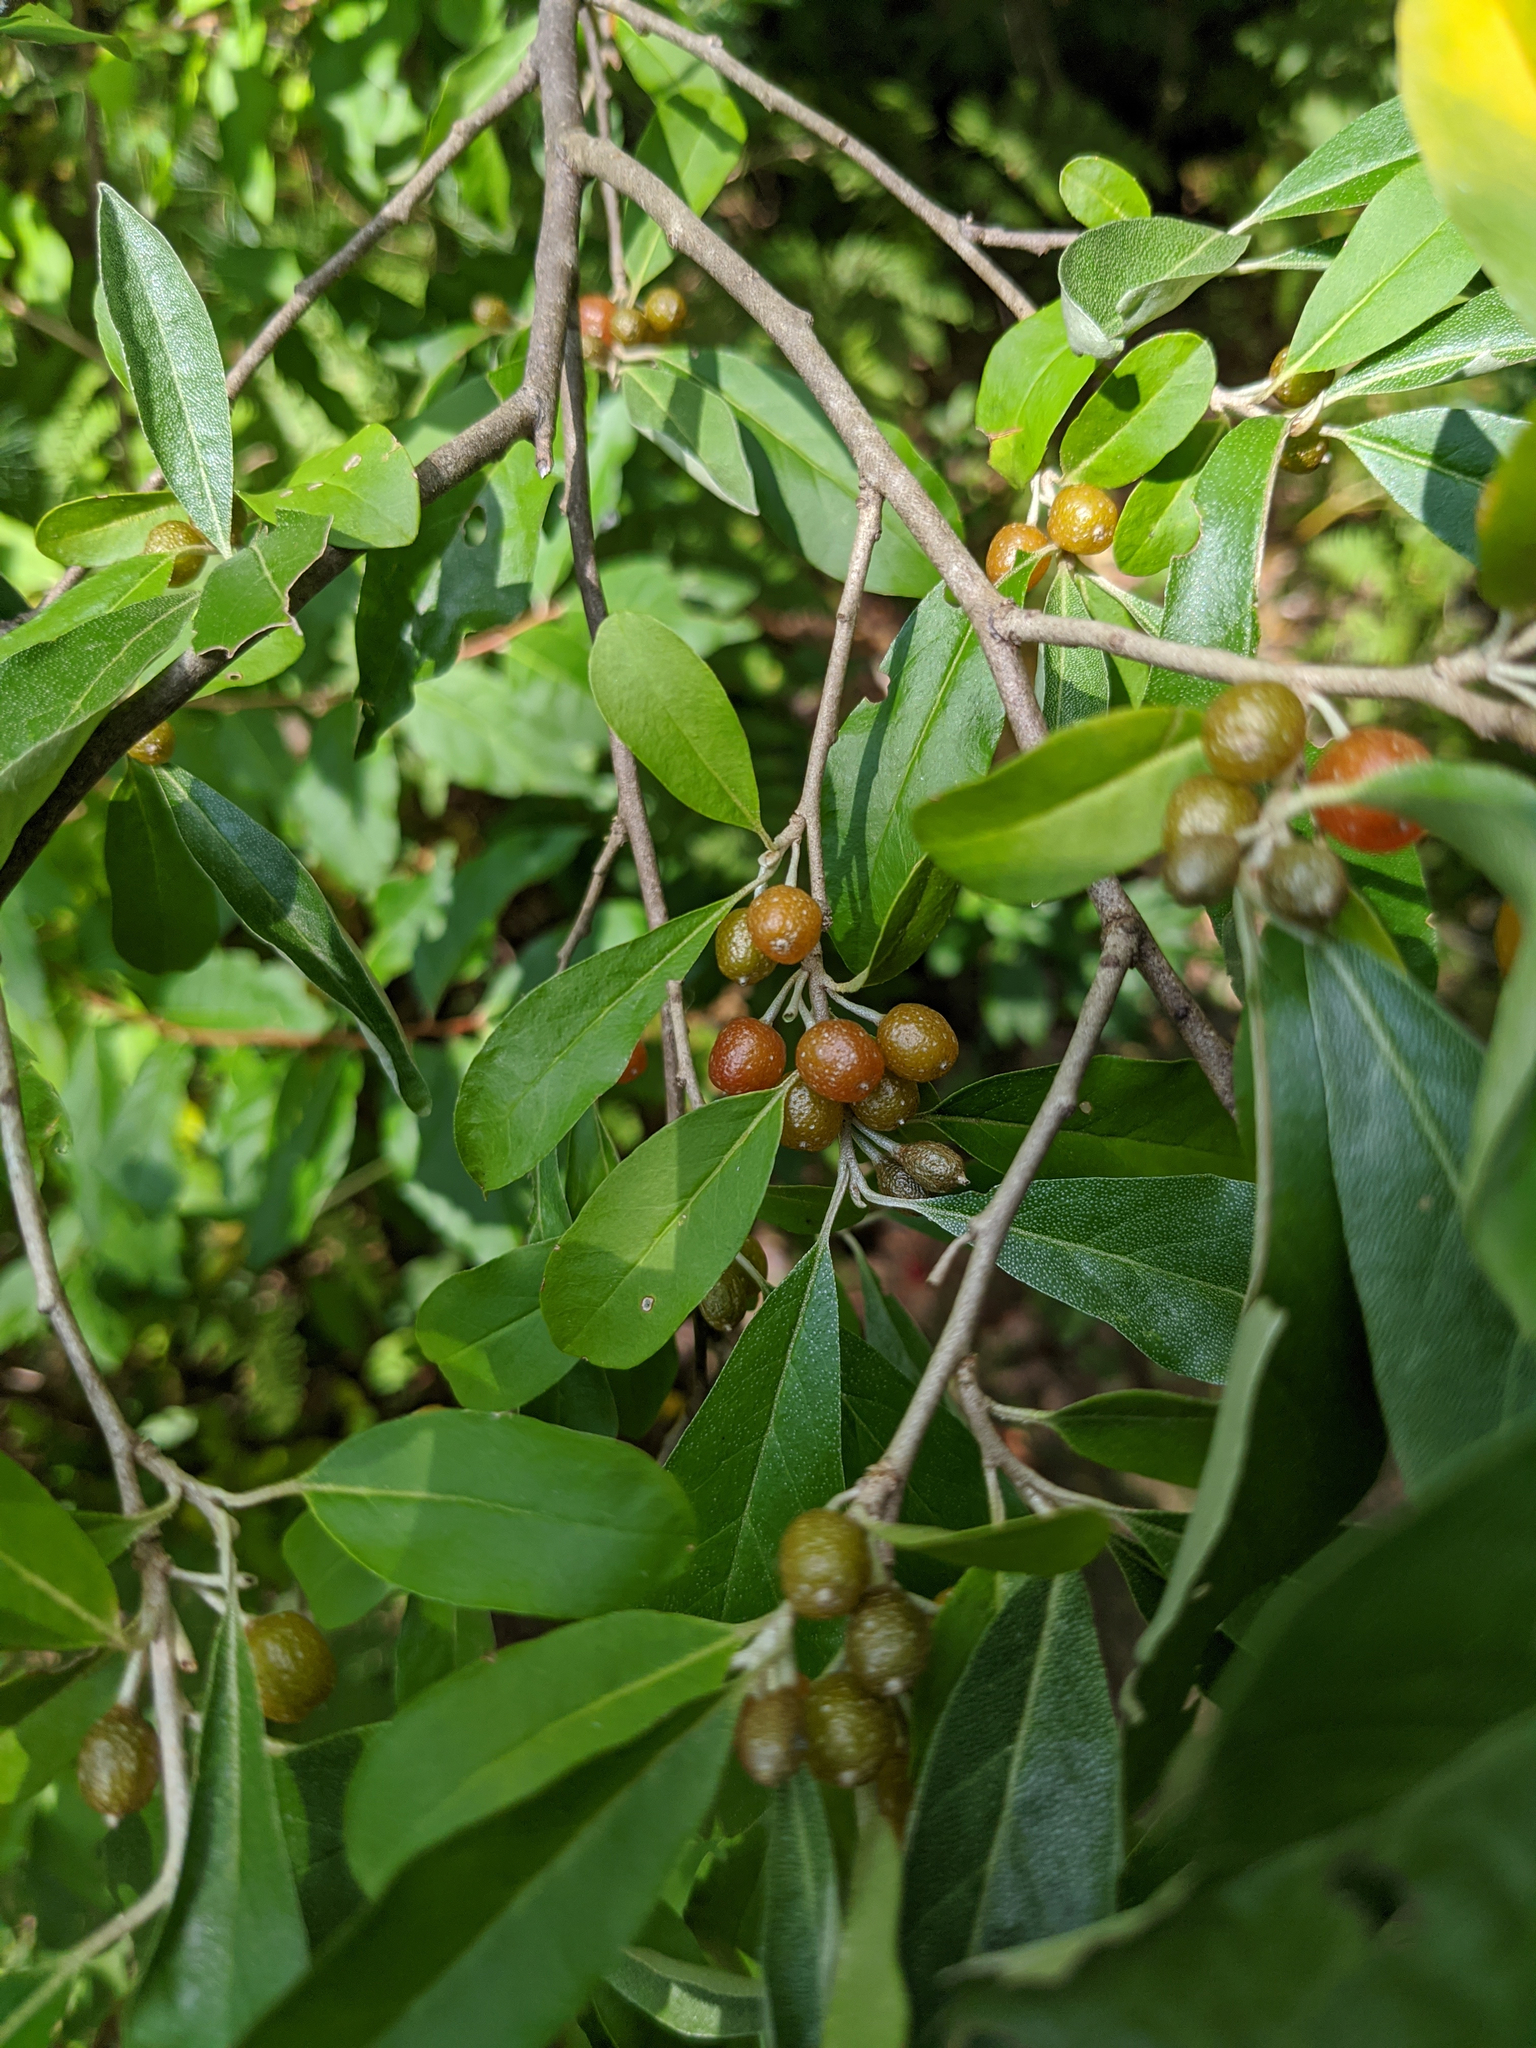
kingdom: Plantae
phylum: Tracheophyta
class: Magnoliopsida
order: Rosales
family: Elaeagnaceae
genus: Elaeagnus
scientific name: Elaeagnus umbellata
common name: Autumn olive
